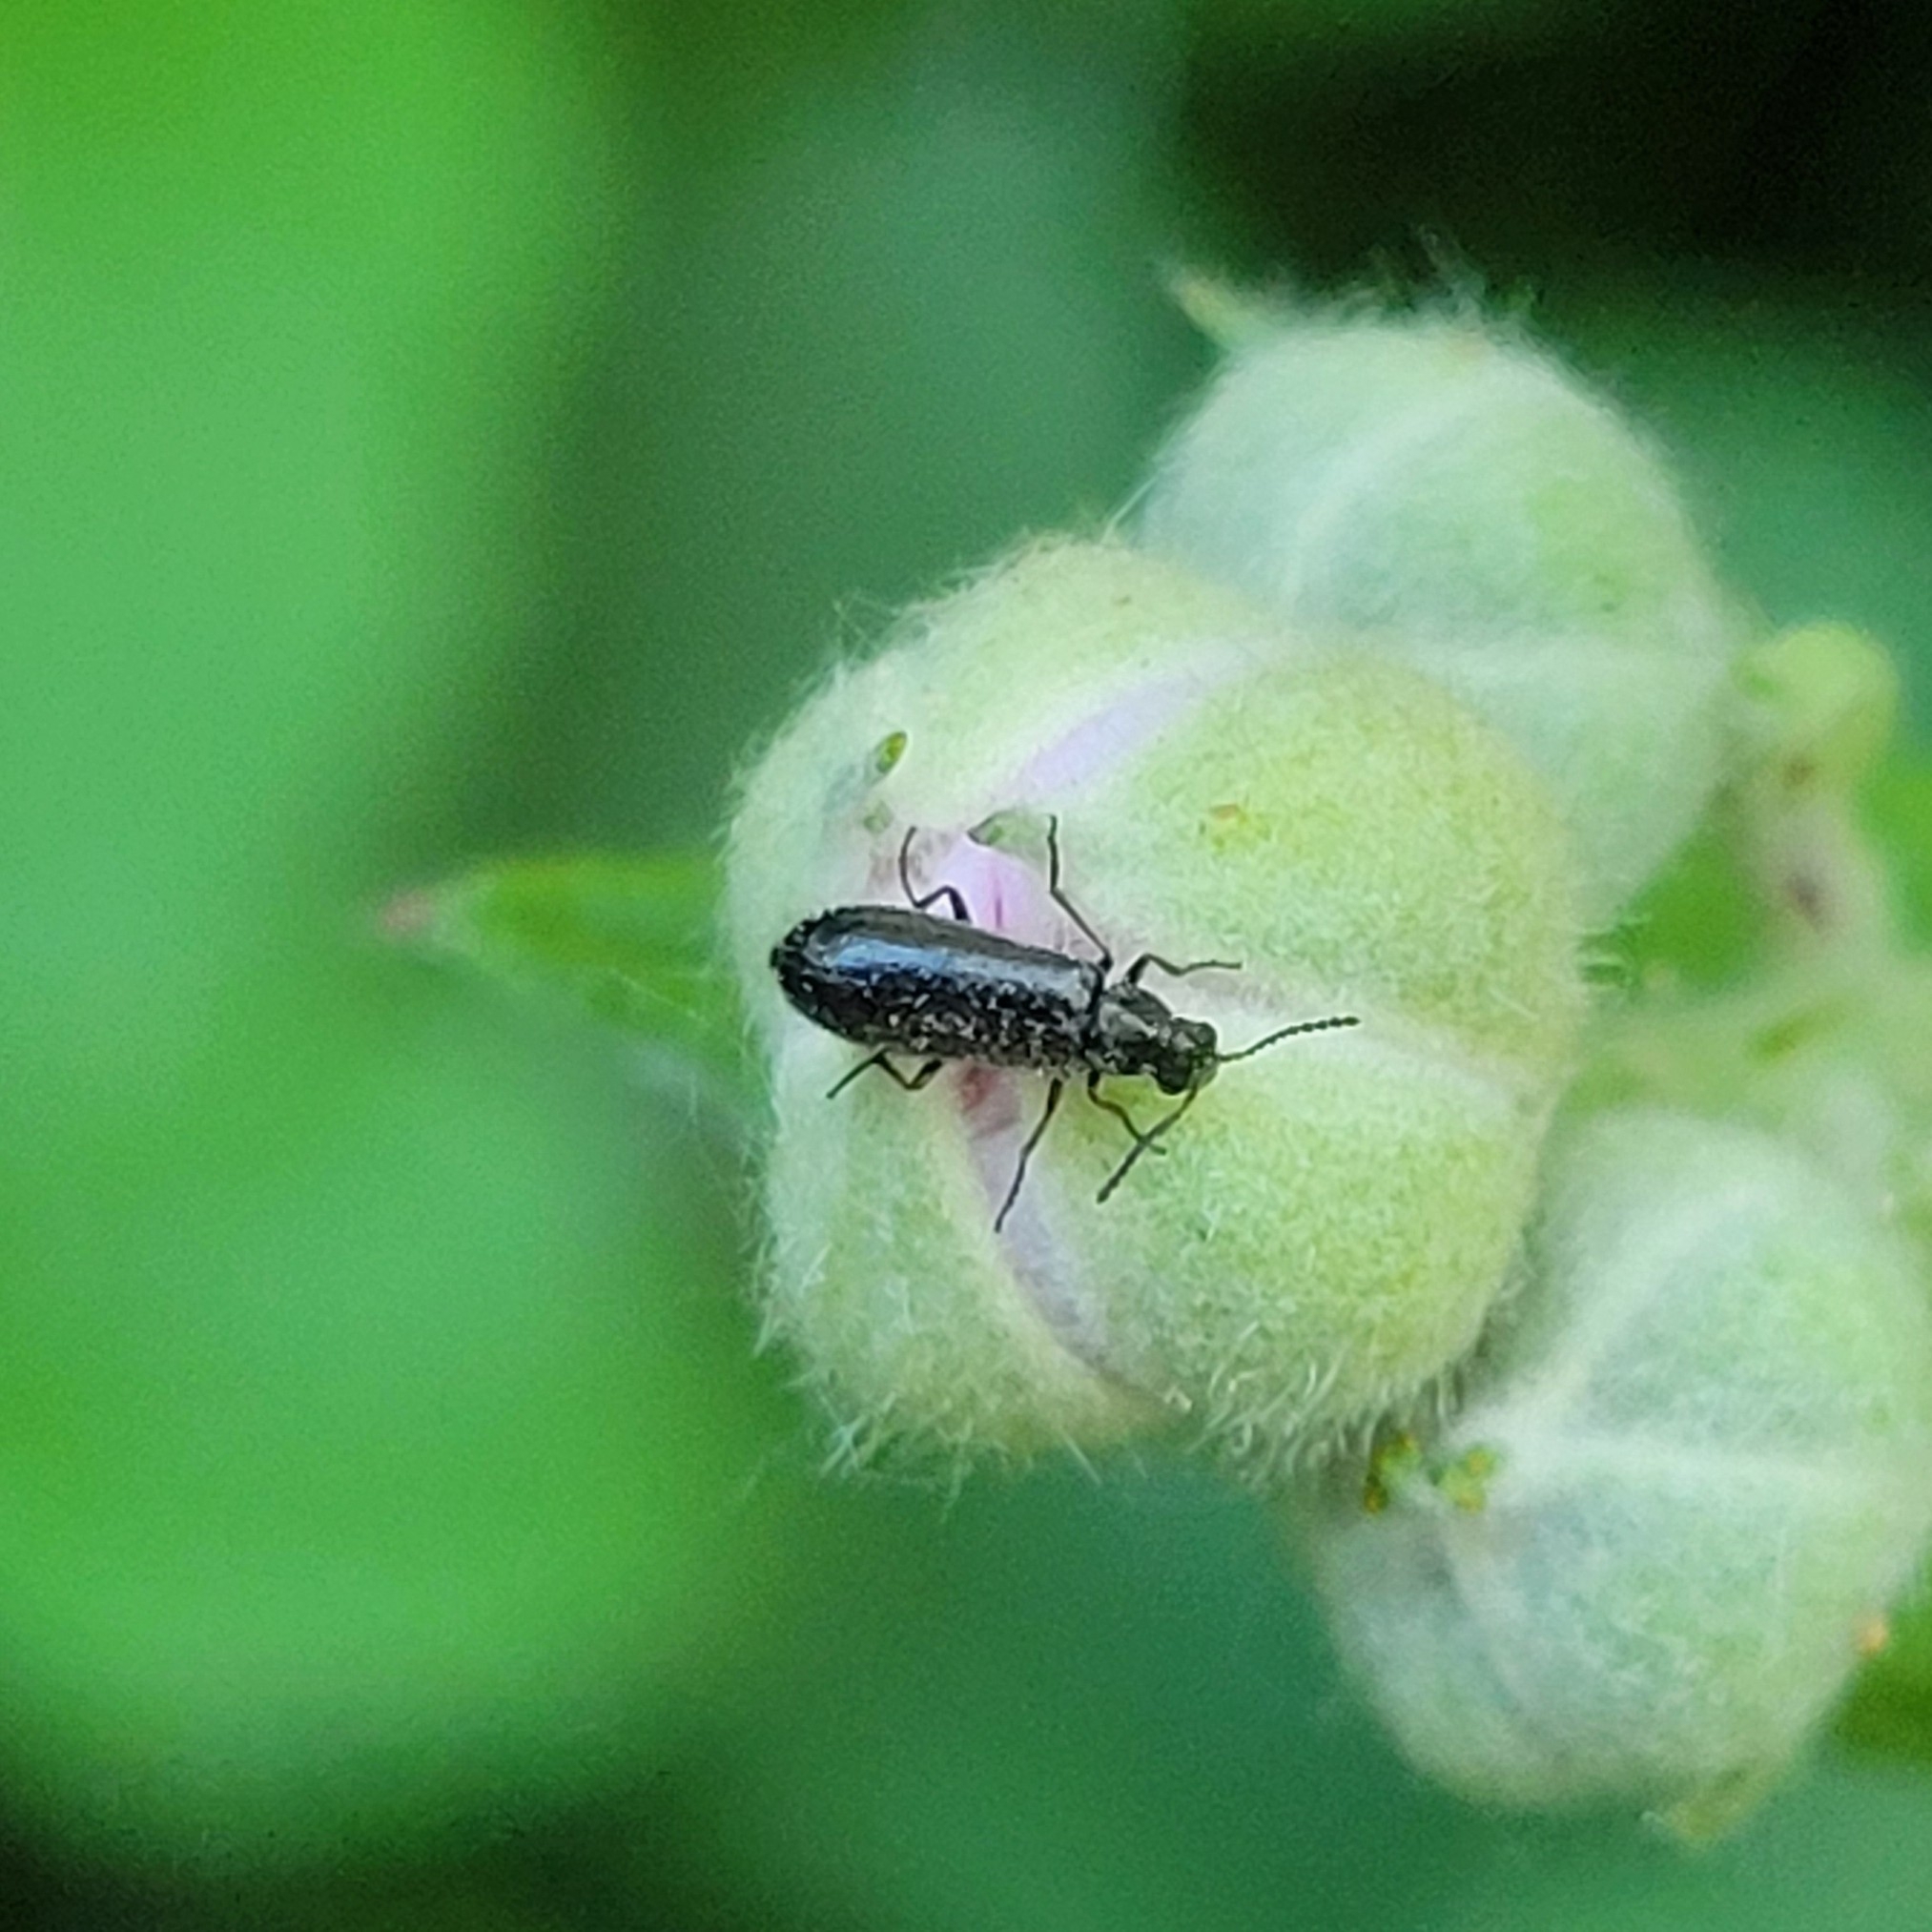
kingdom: Animalia
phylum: Arthropoda
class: Insecta
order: Coleoptera
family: Melyridae
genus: Dasytes
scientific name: Dasytes plumbeus
